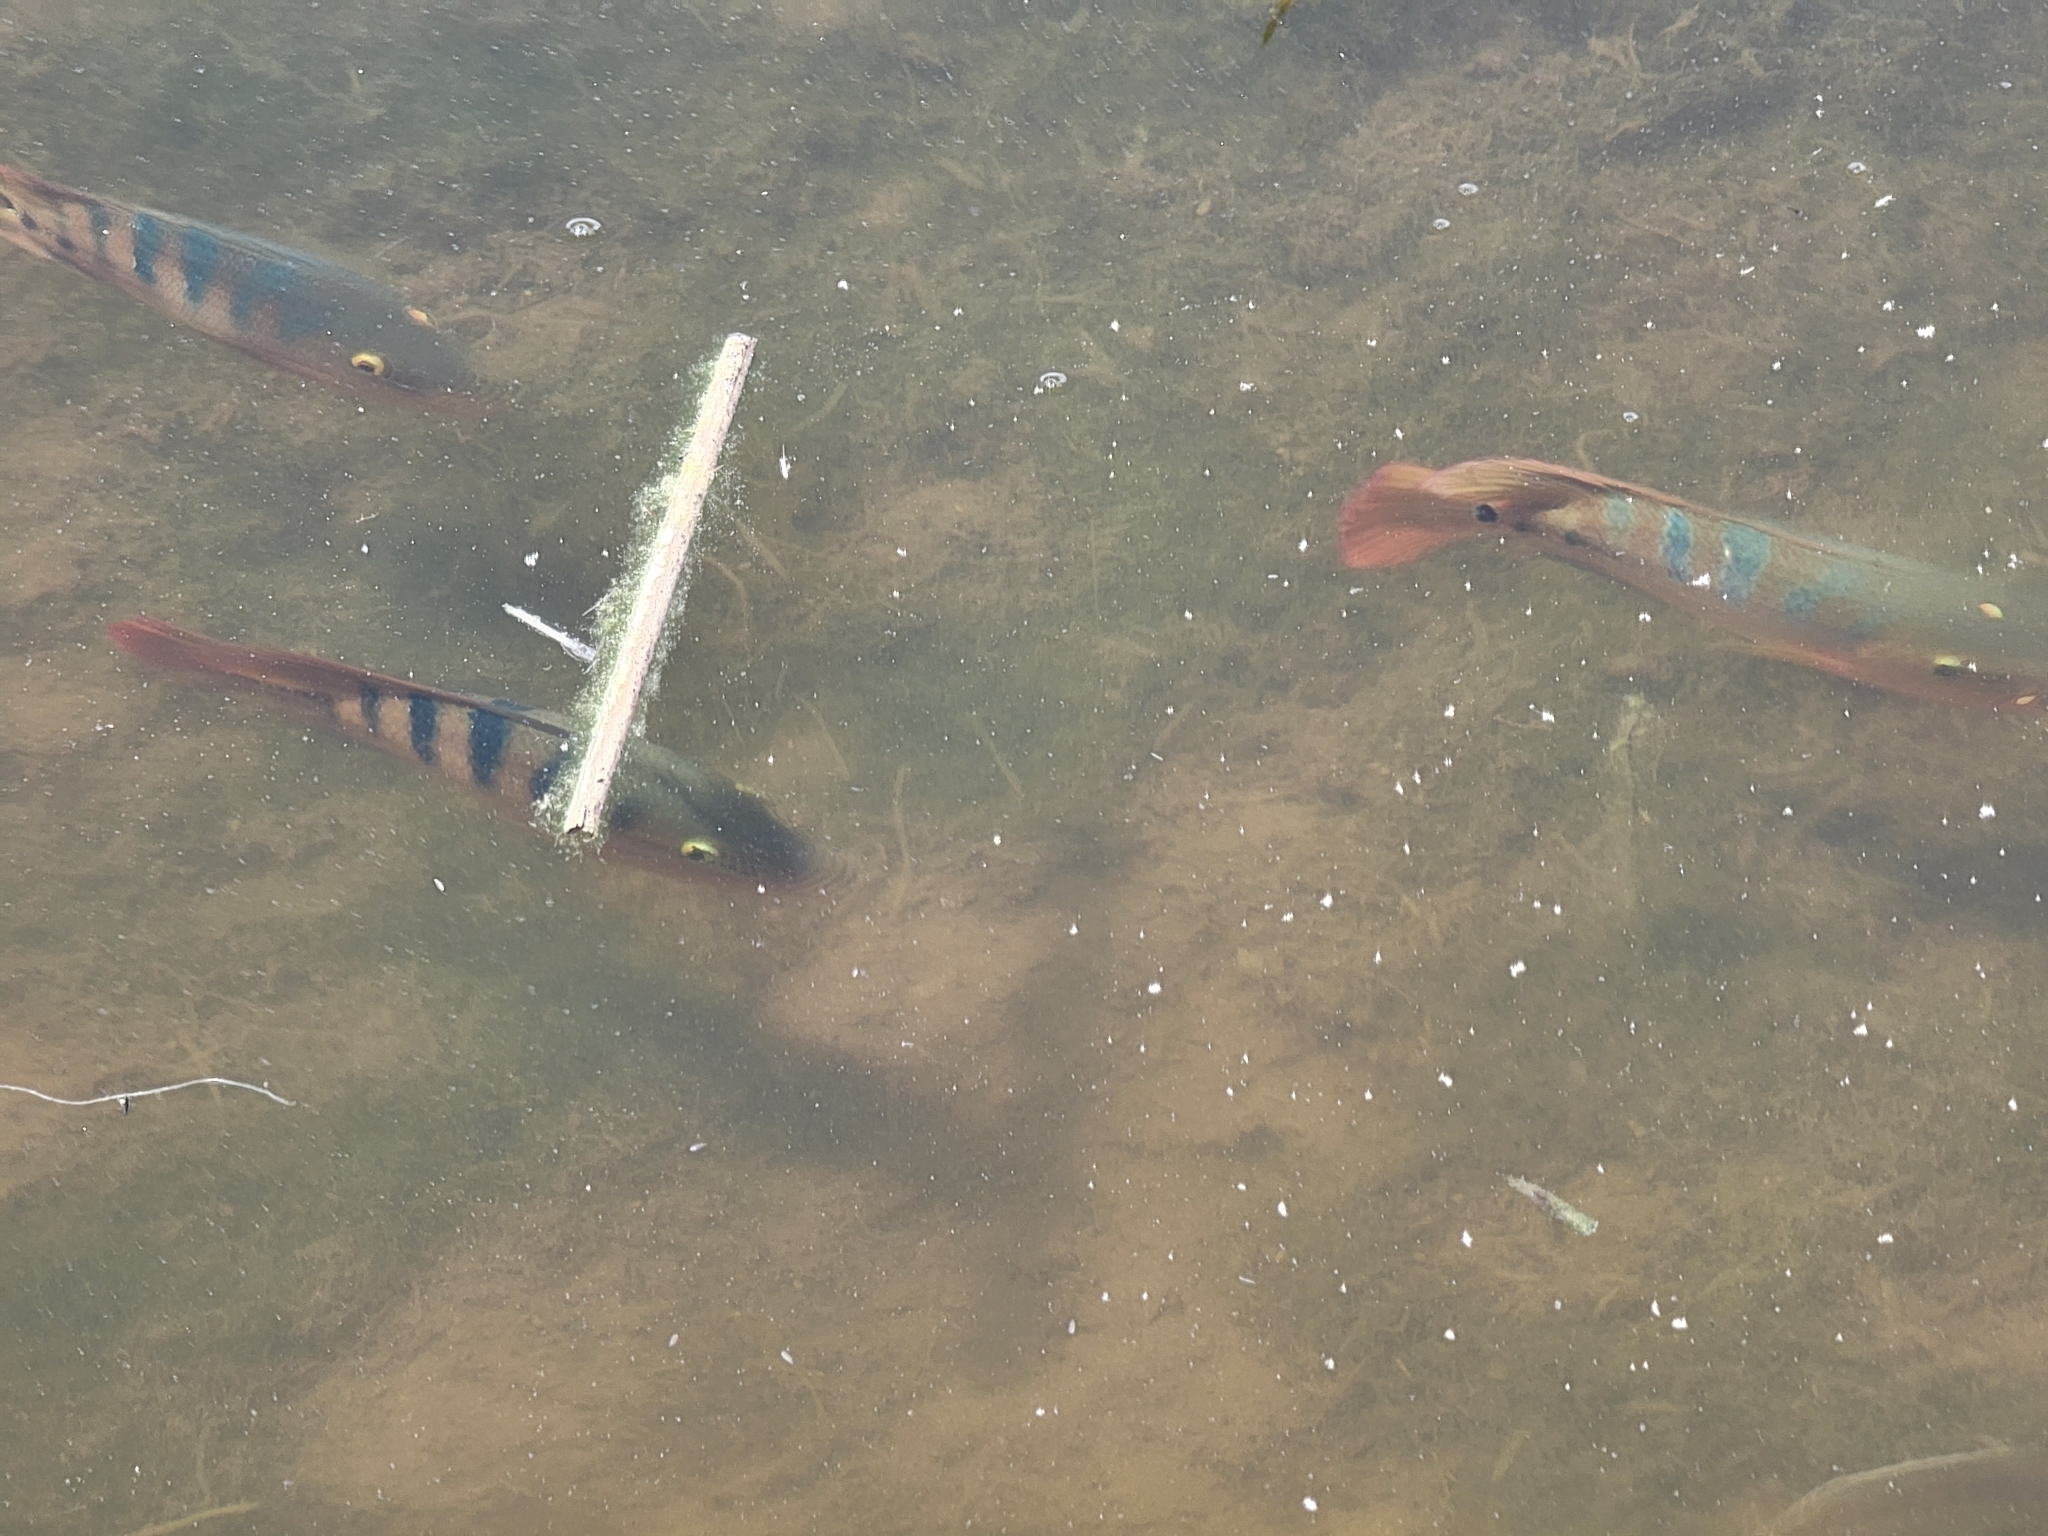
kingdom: Animalia
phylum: Chordata
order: Perciformes
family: Cichlidae
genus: Mayaheros
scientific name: Mayaheros urophthalmus
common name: Mayan cichlid
